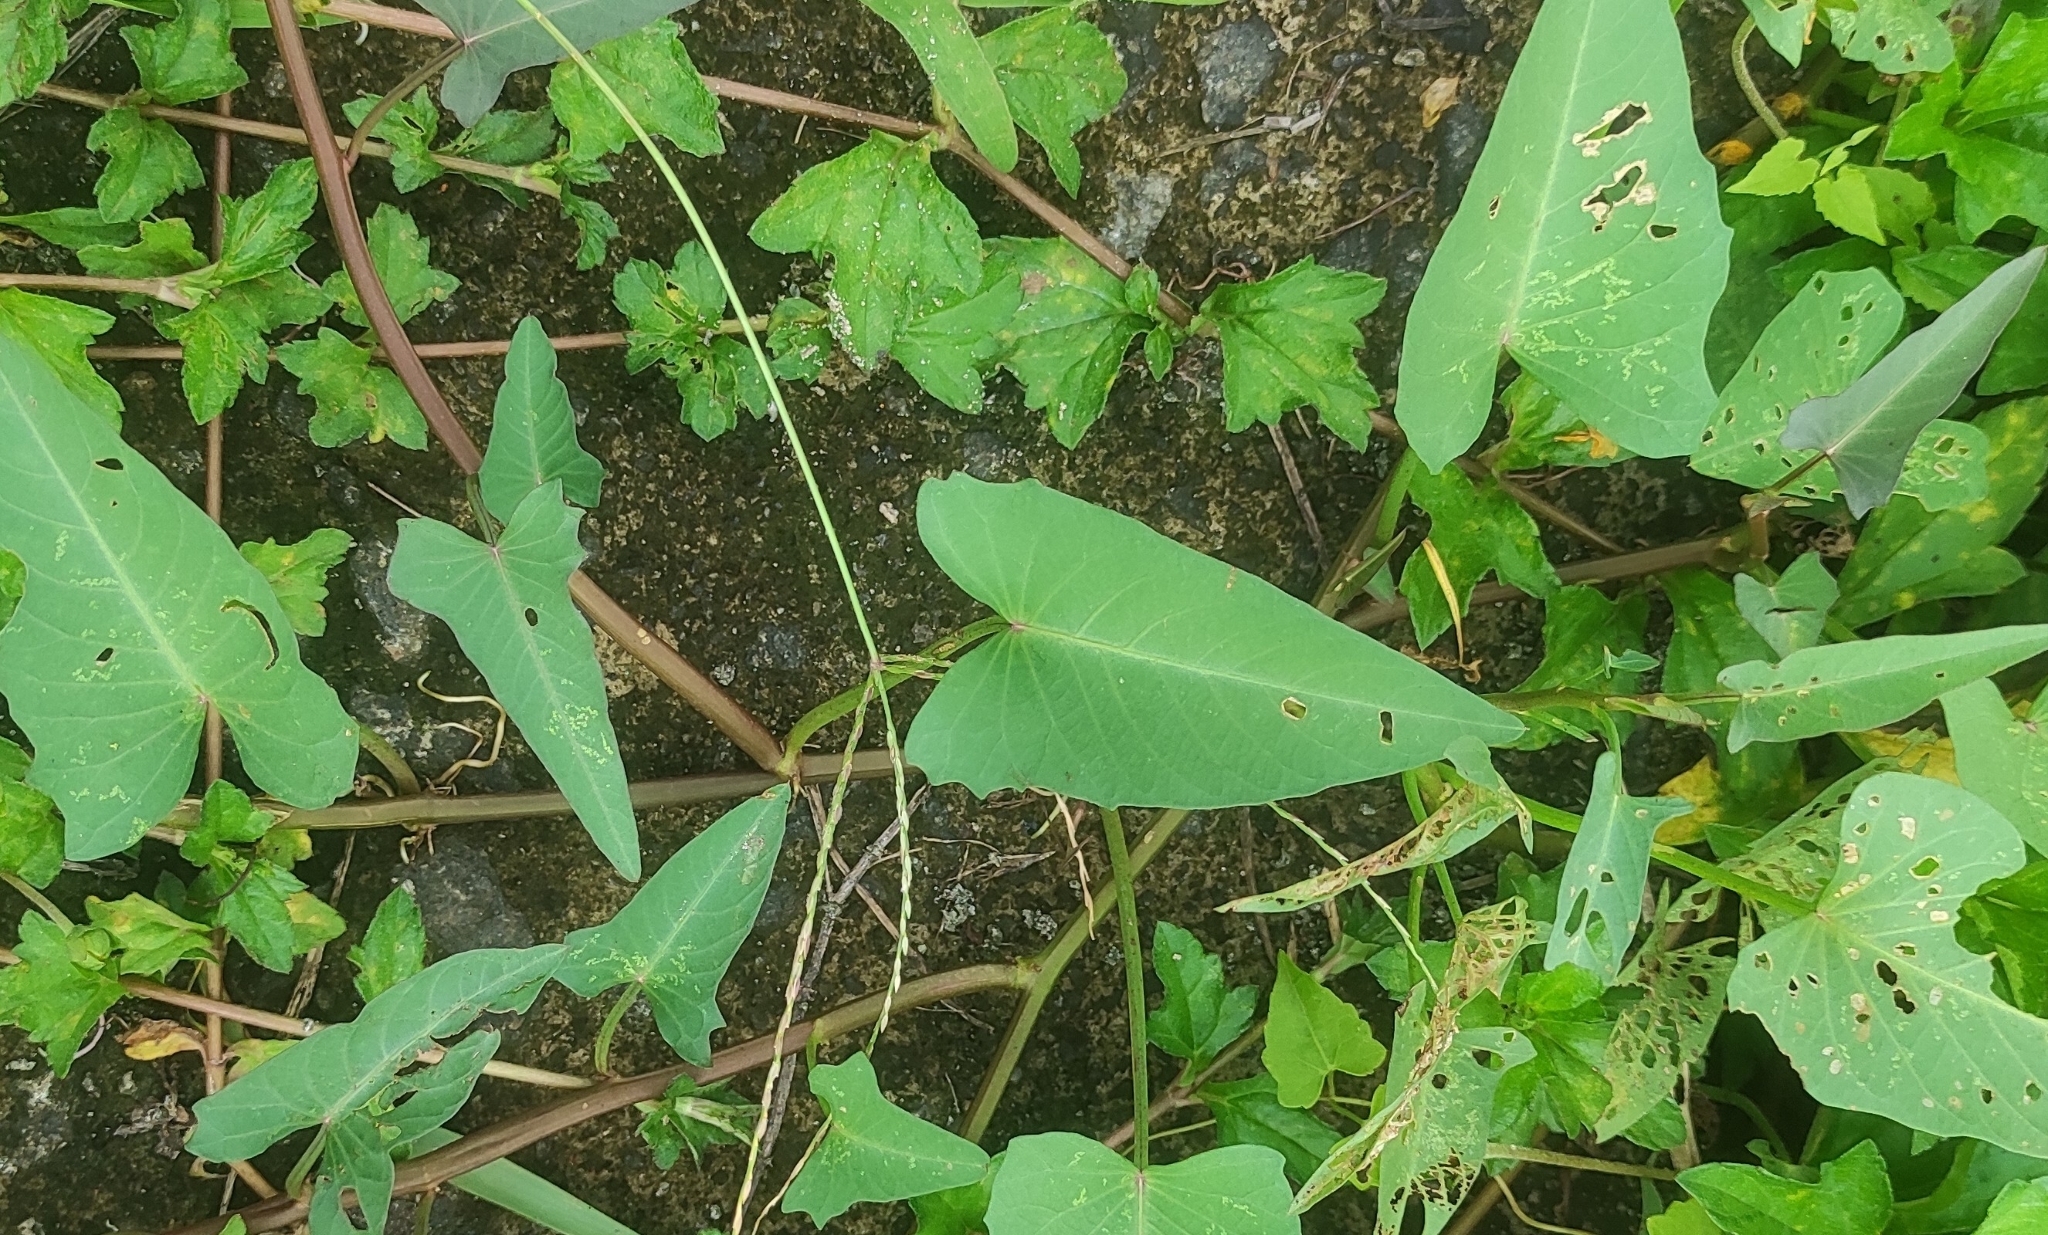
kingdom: Plantae
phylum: Tracheophyta
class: Magnoliopsida
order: Solanales
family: Convolvulaceae
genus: Ipomoea
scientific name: Ipomoea aquatica
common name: Swamp morning-glory
